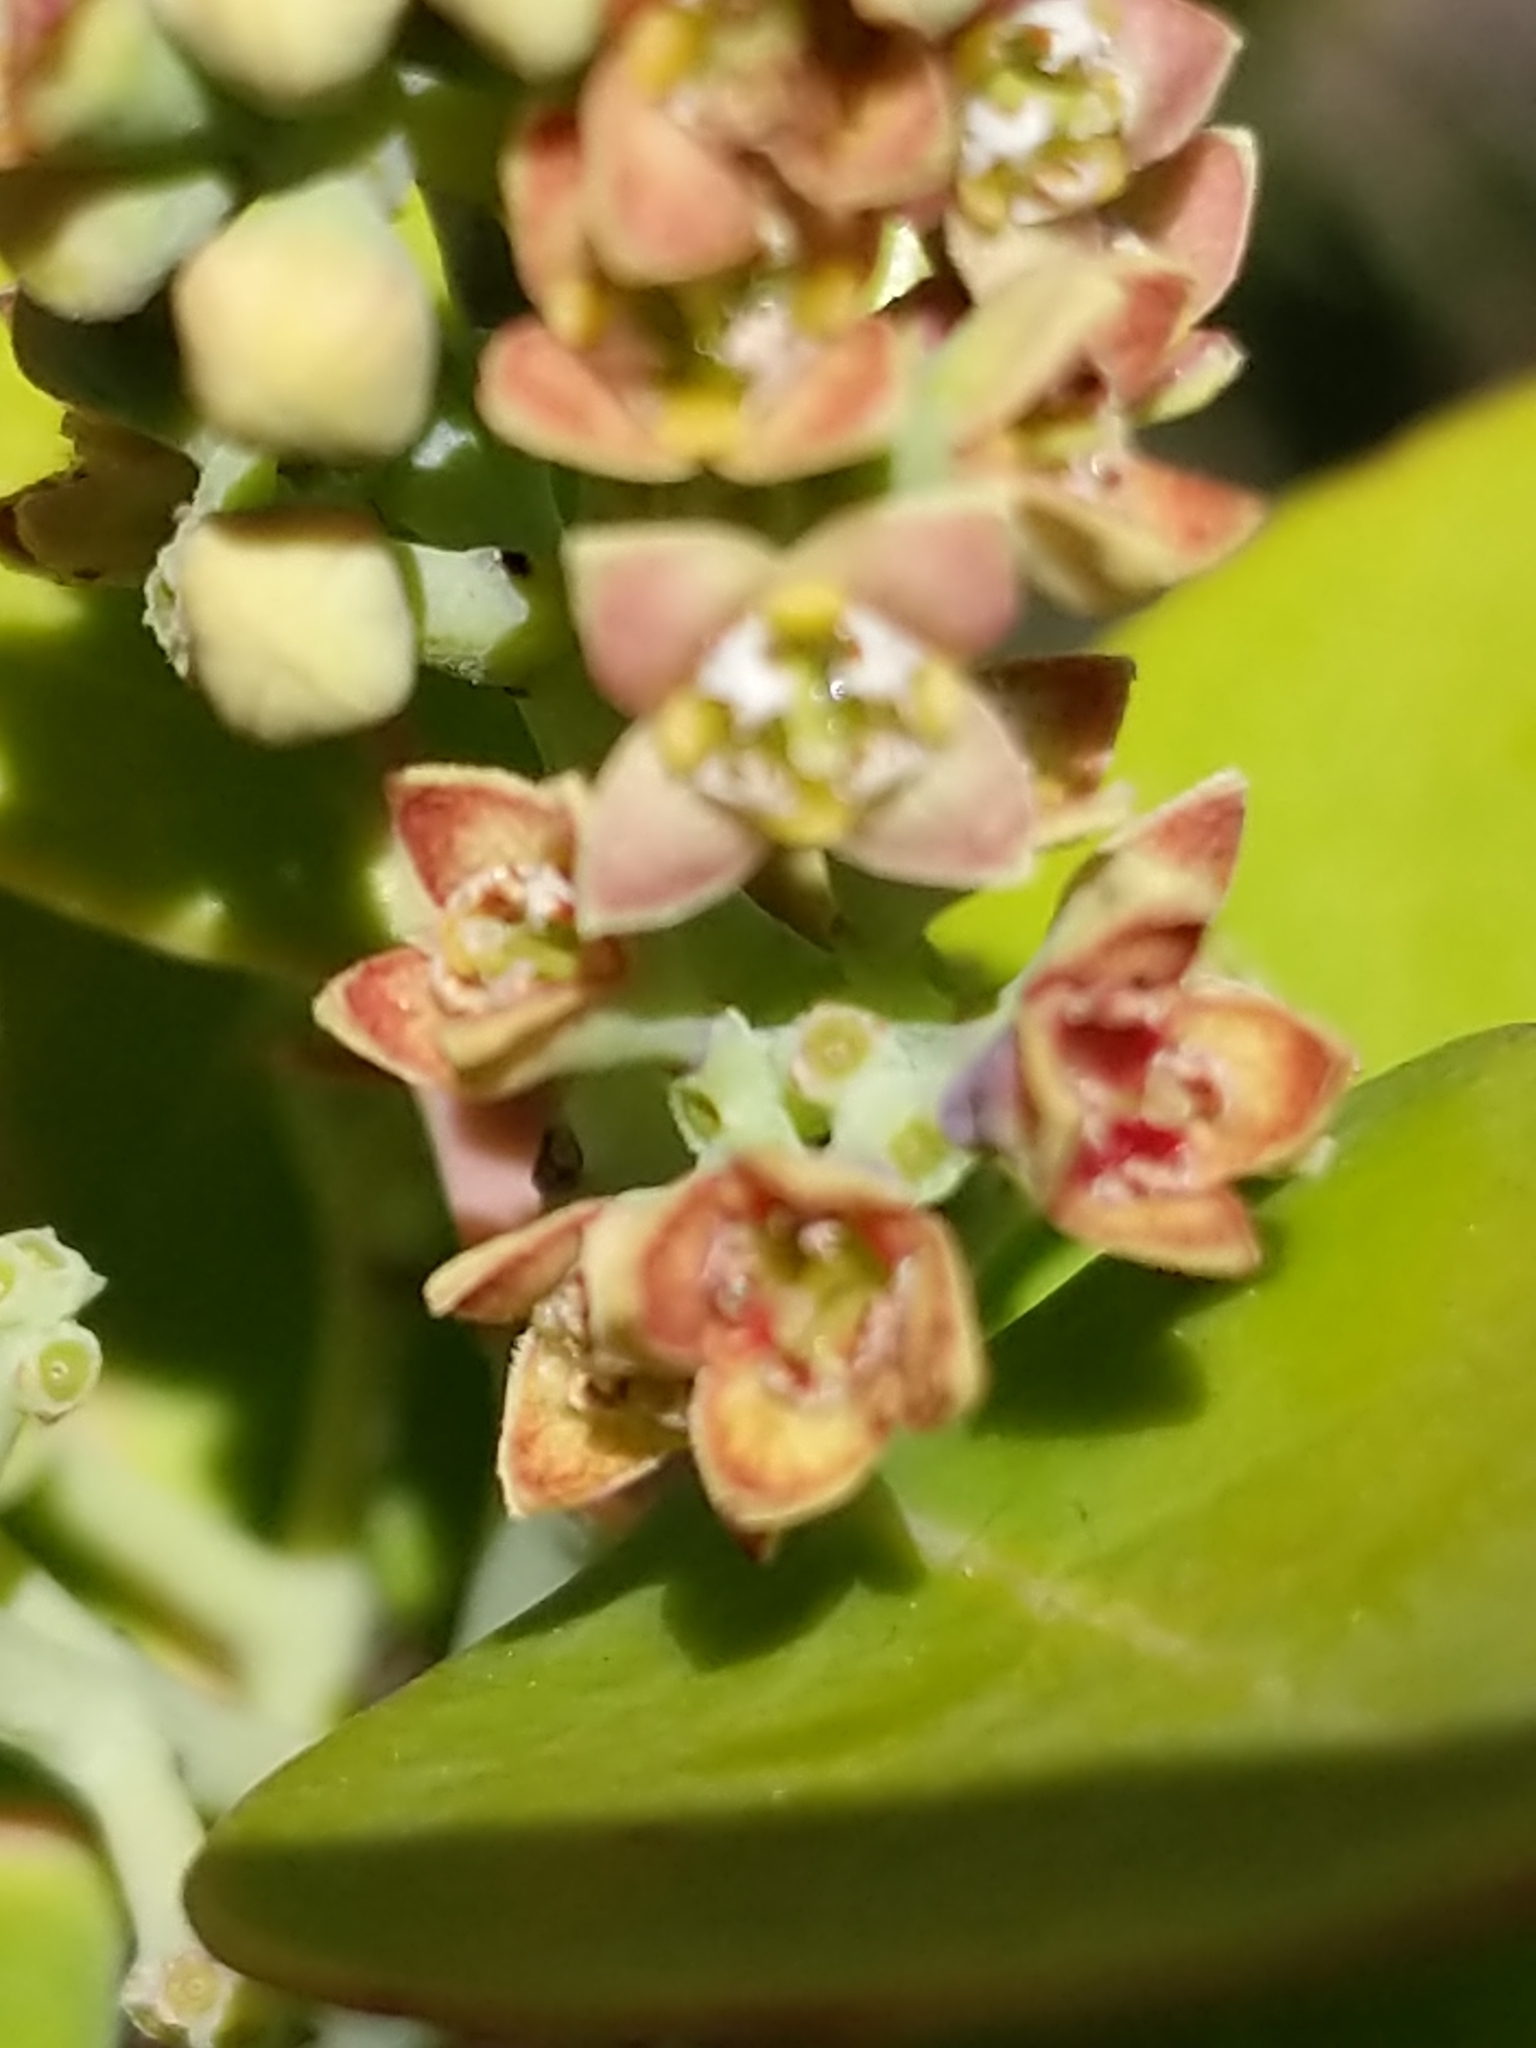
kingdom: Plantae
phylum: Tracheophyta
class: Magnoliopsida
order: Santalales
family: Santalaceae
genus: Santalum
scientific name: Santalum ellipticum
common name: Coast sandalwood
